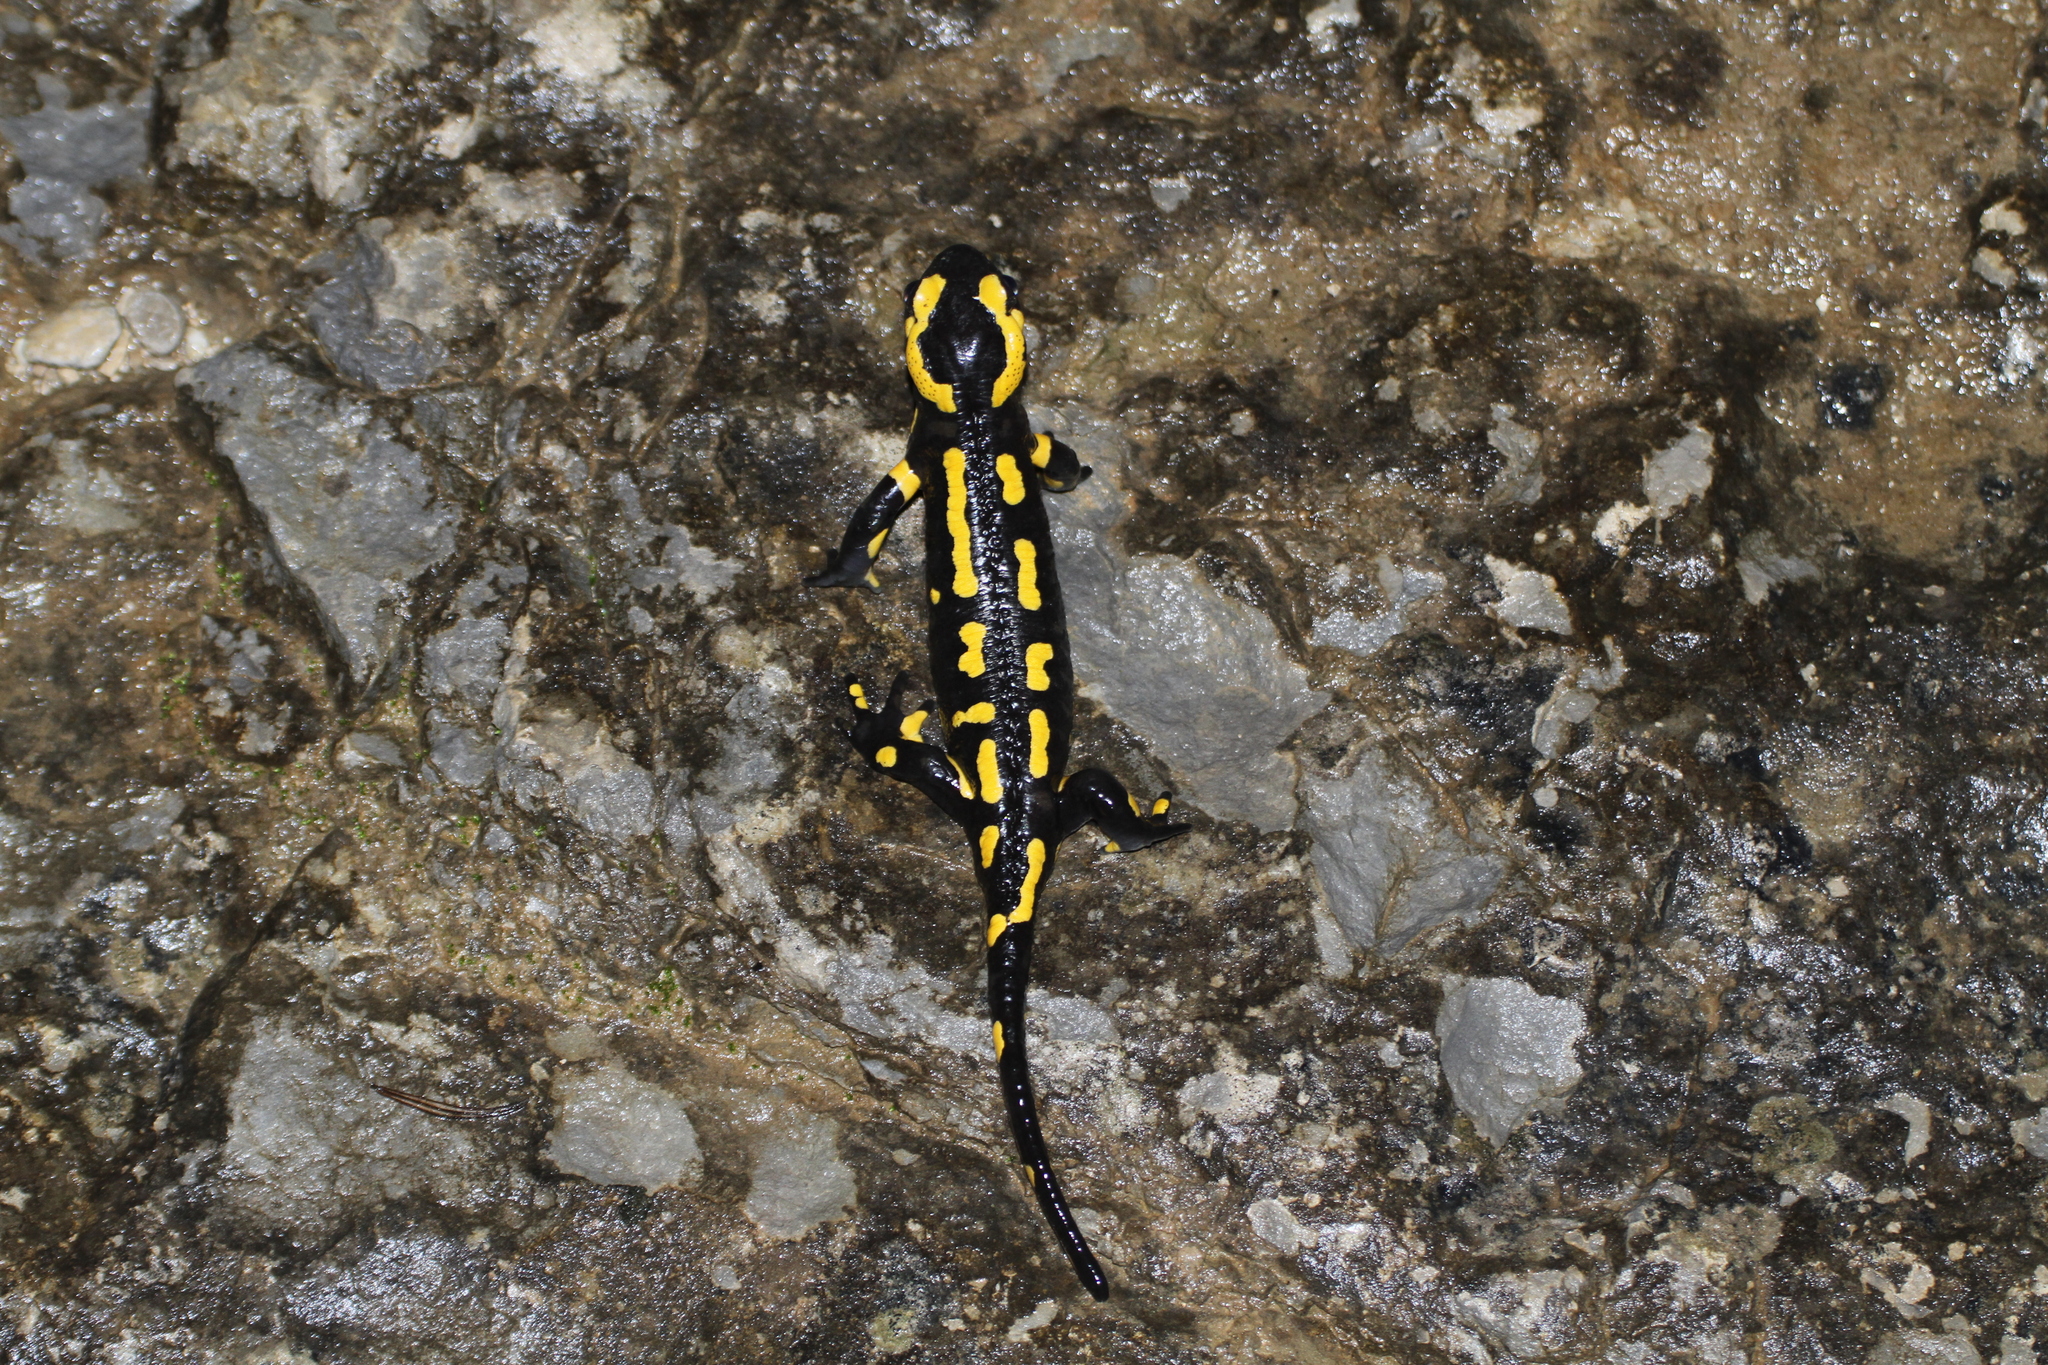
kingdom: Animalia
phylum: Chordata
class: Amphibia
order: Caudata
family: Salamandridae
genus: Salamandra
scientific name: Salamandra salamandra
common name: Fire salamander
